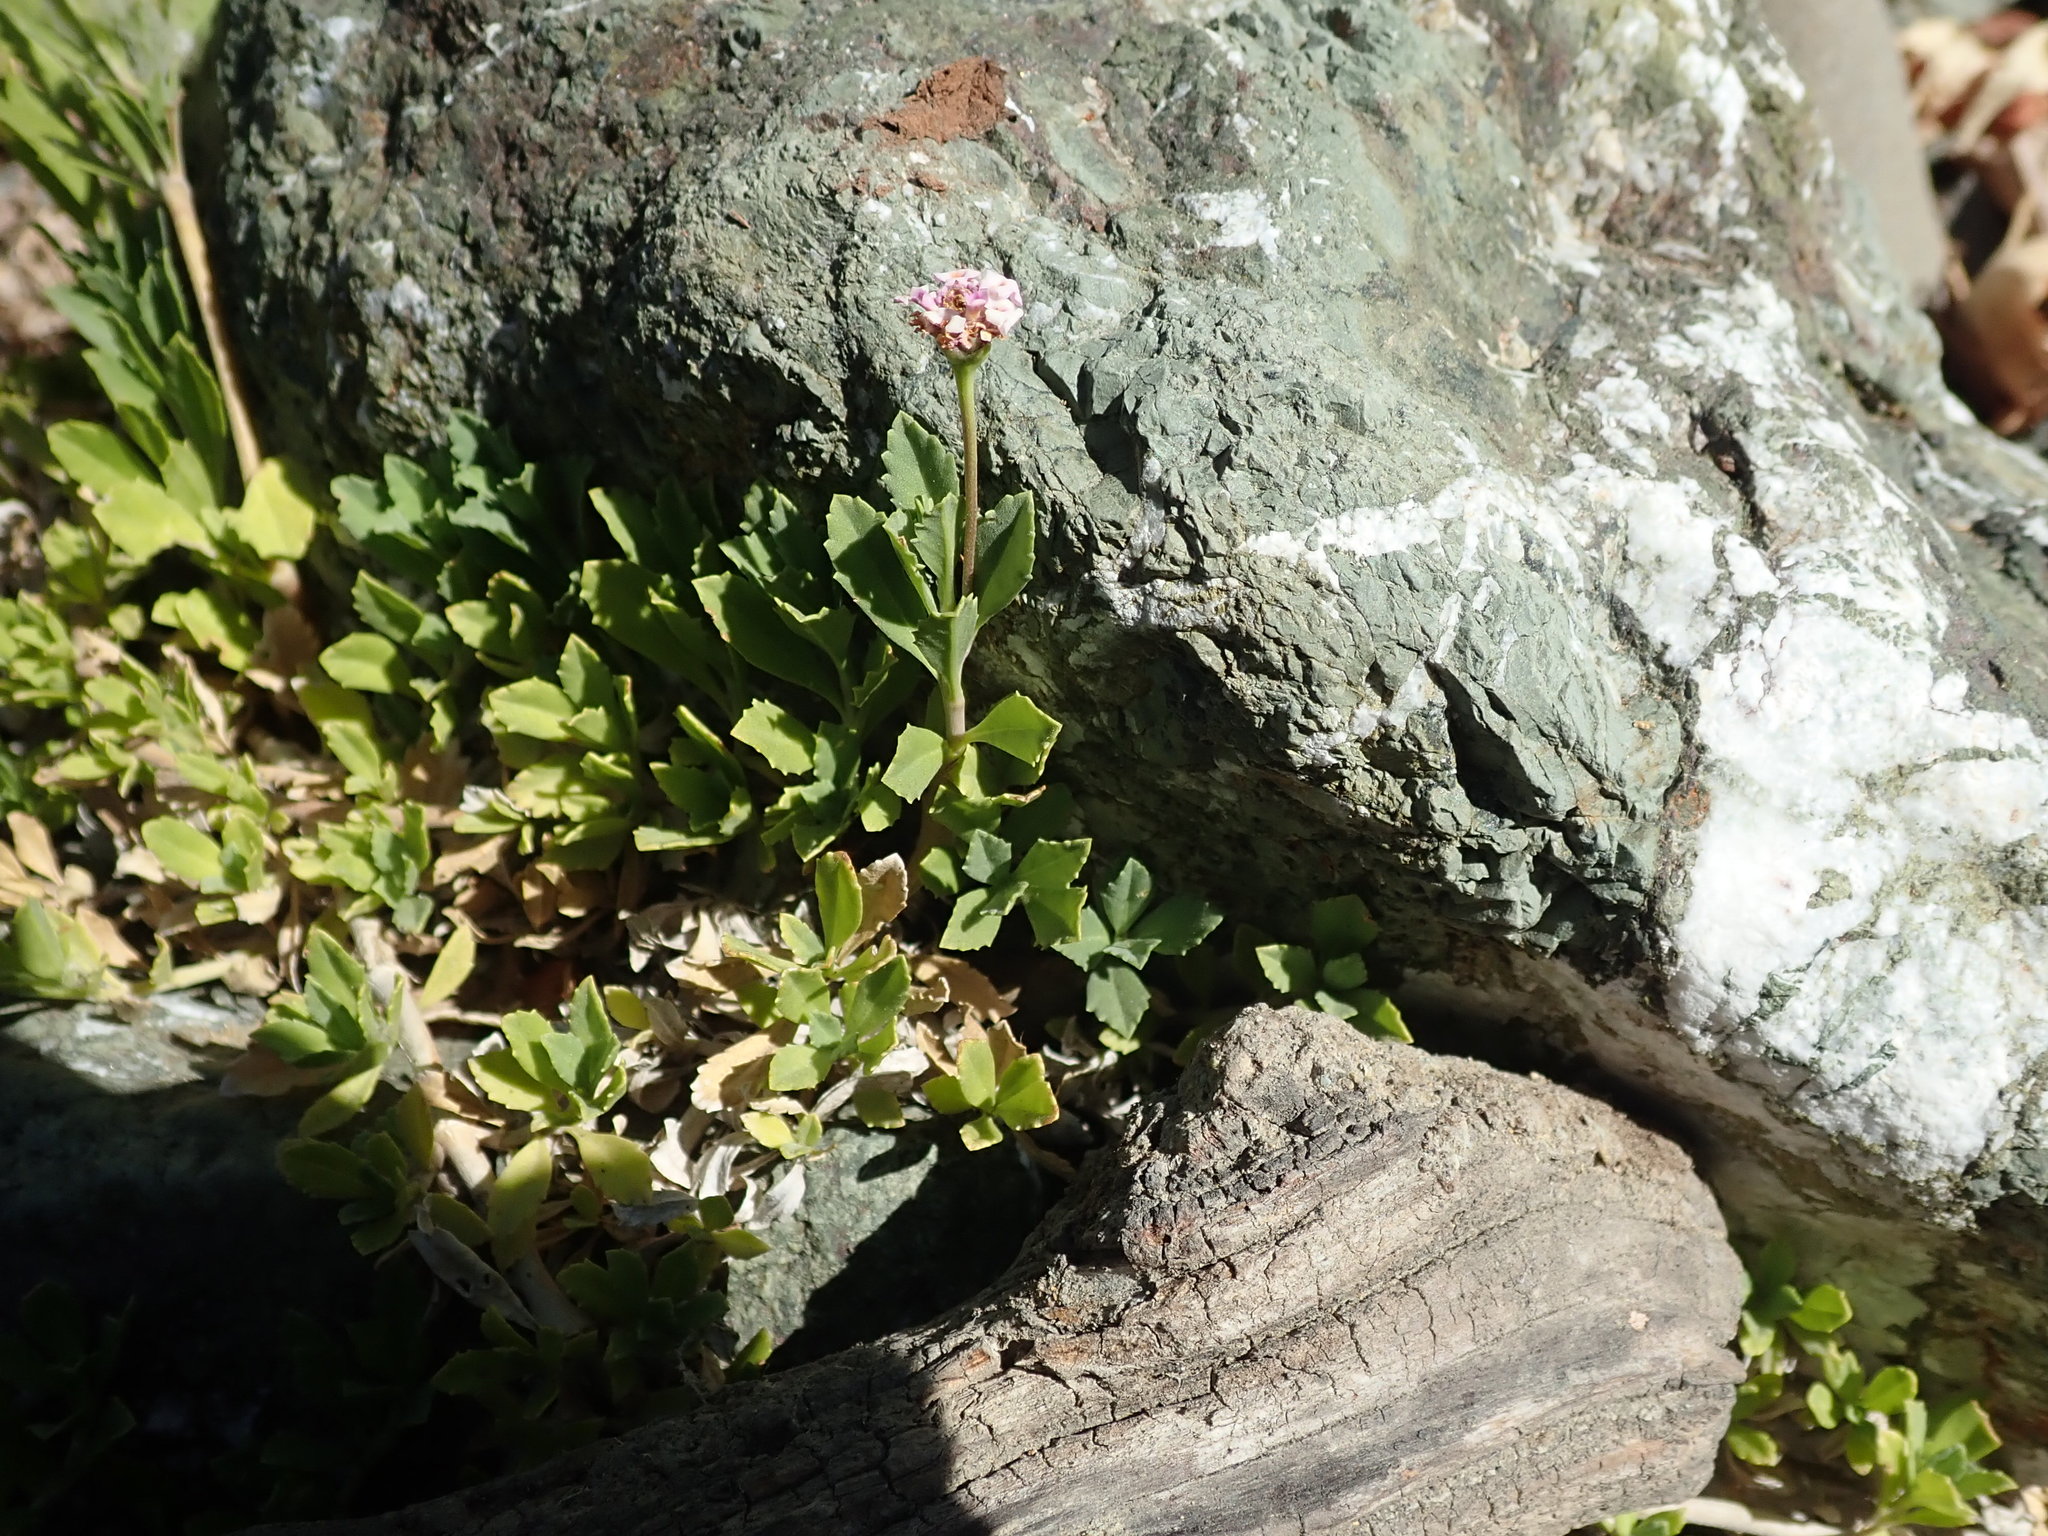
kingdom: Plantae
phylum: Tracheophyta
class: Magnoliopsida
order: Lamiales
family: Verbenaceae
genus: Phyla
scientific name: Phyla nodiflora
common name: Frogfruit
